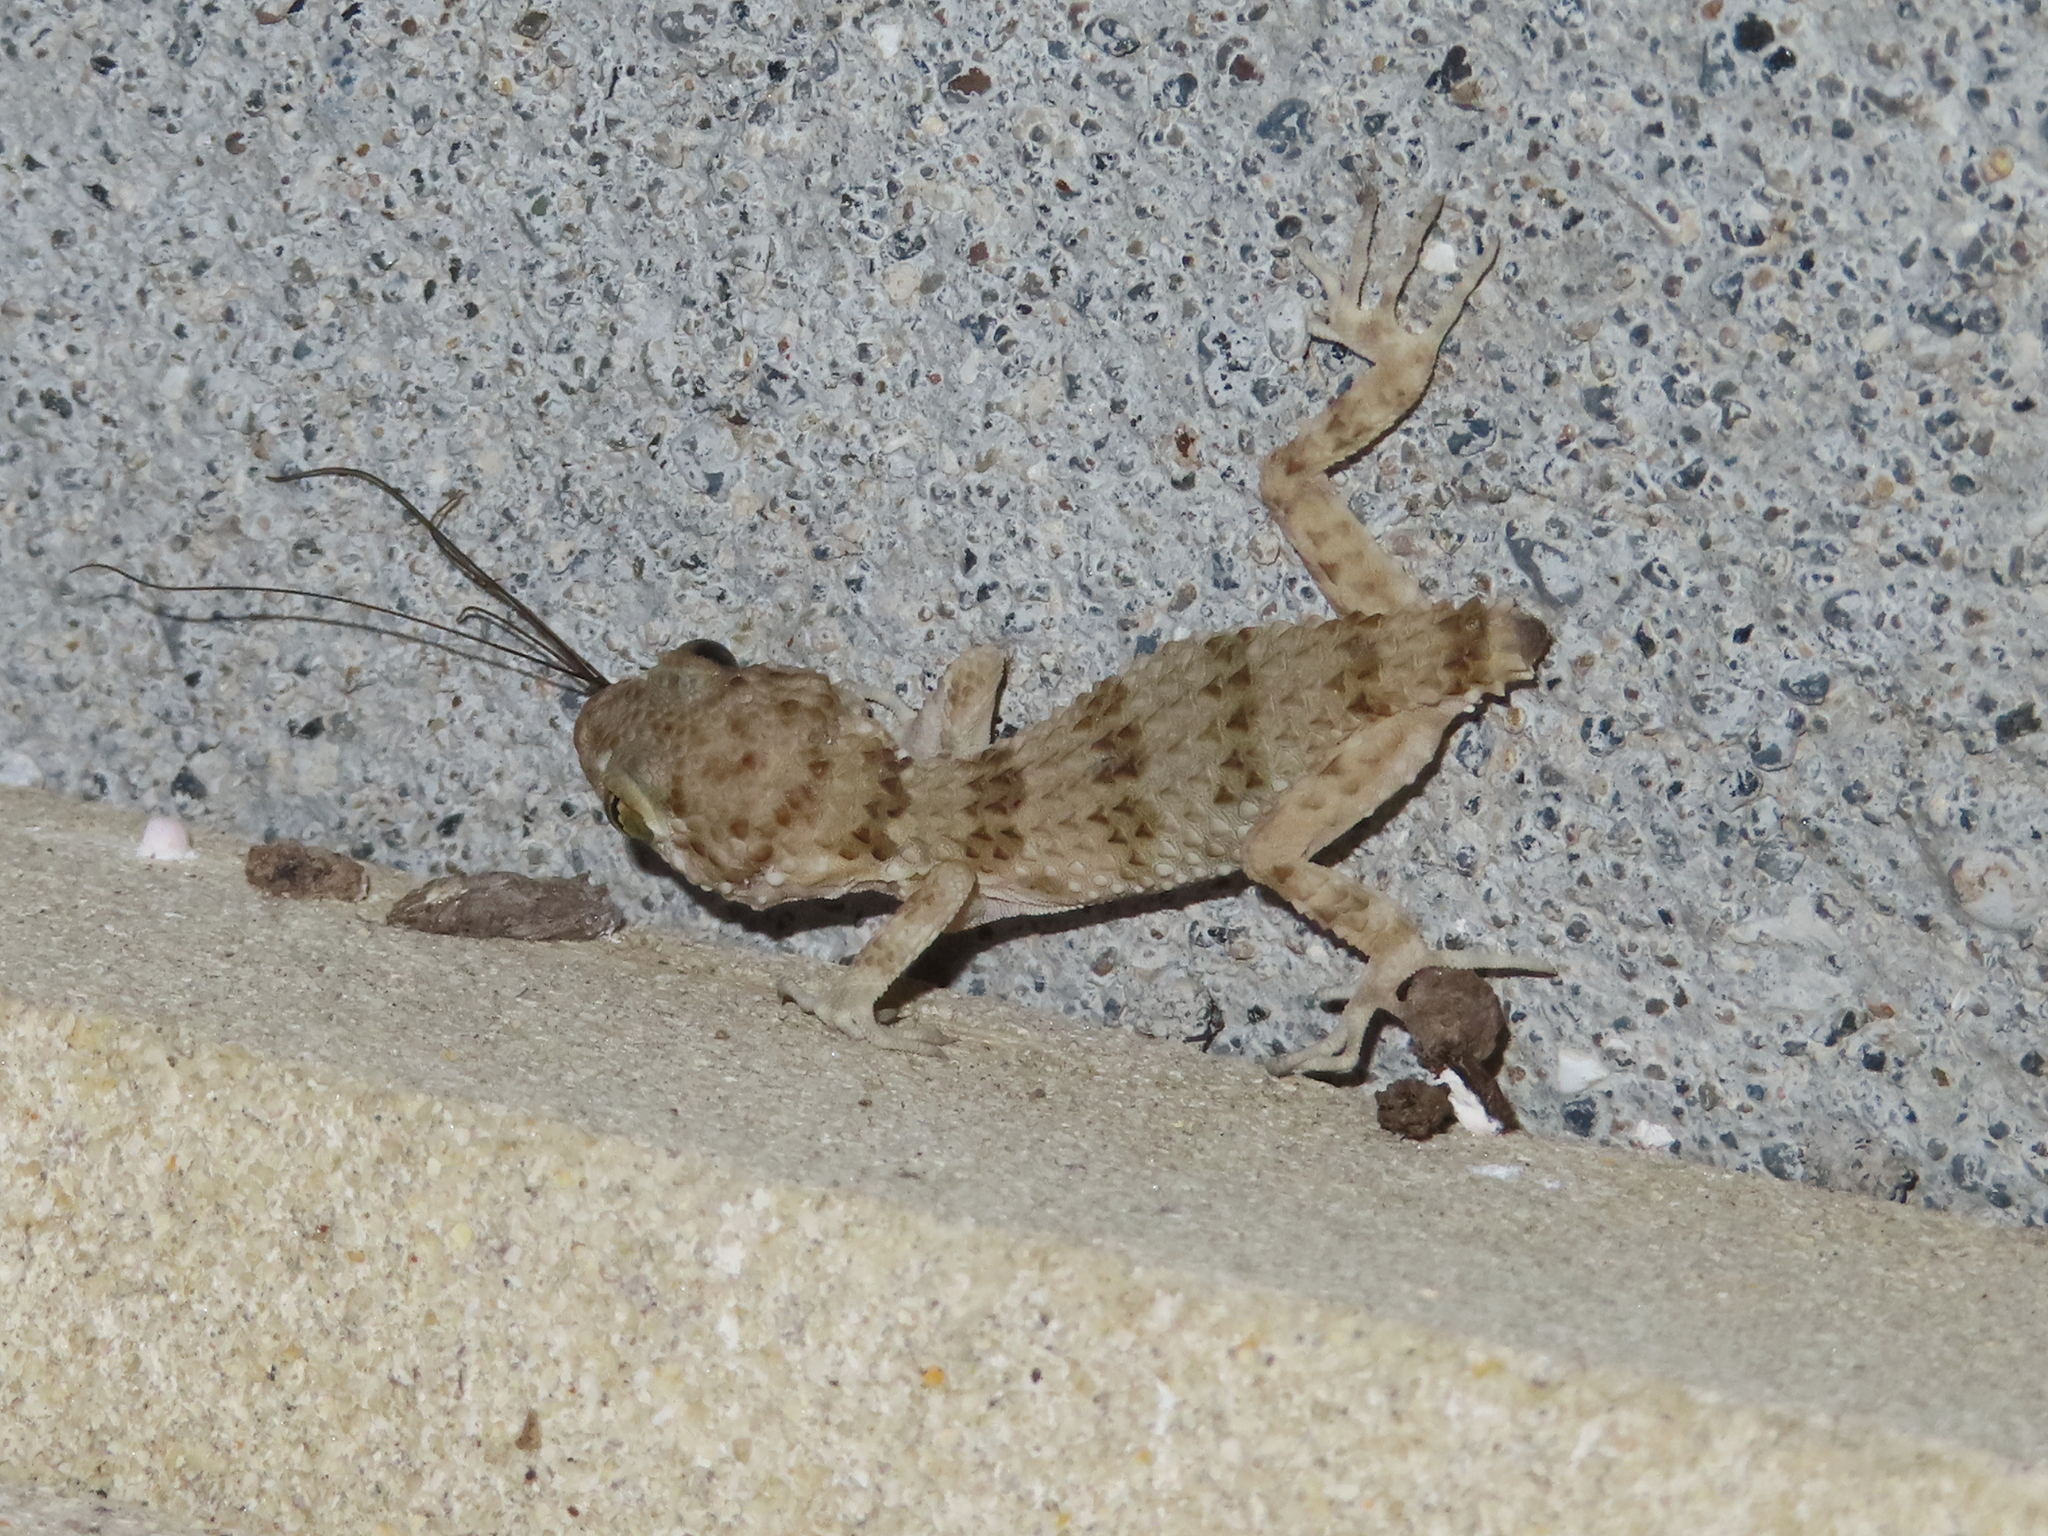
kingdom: Animalia
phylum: Chordata
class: Squamata
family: Gekkonidae
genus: Tenuidactylus
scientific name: Tenuidactylus caspius
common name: Caspian bent-toed gecko
